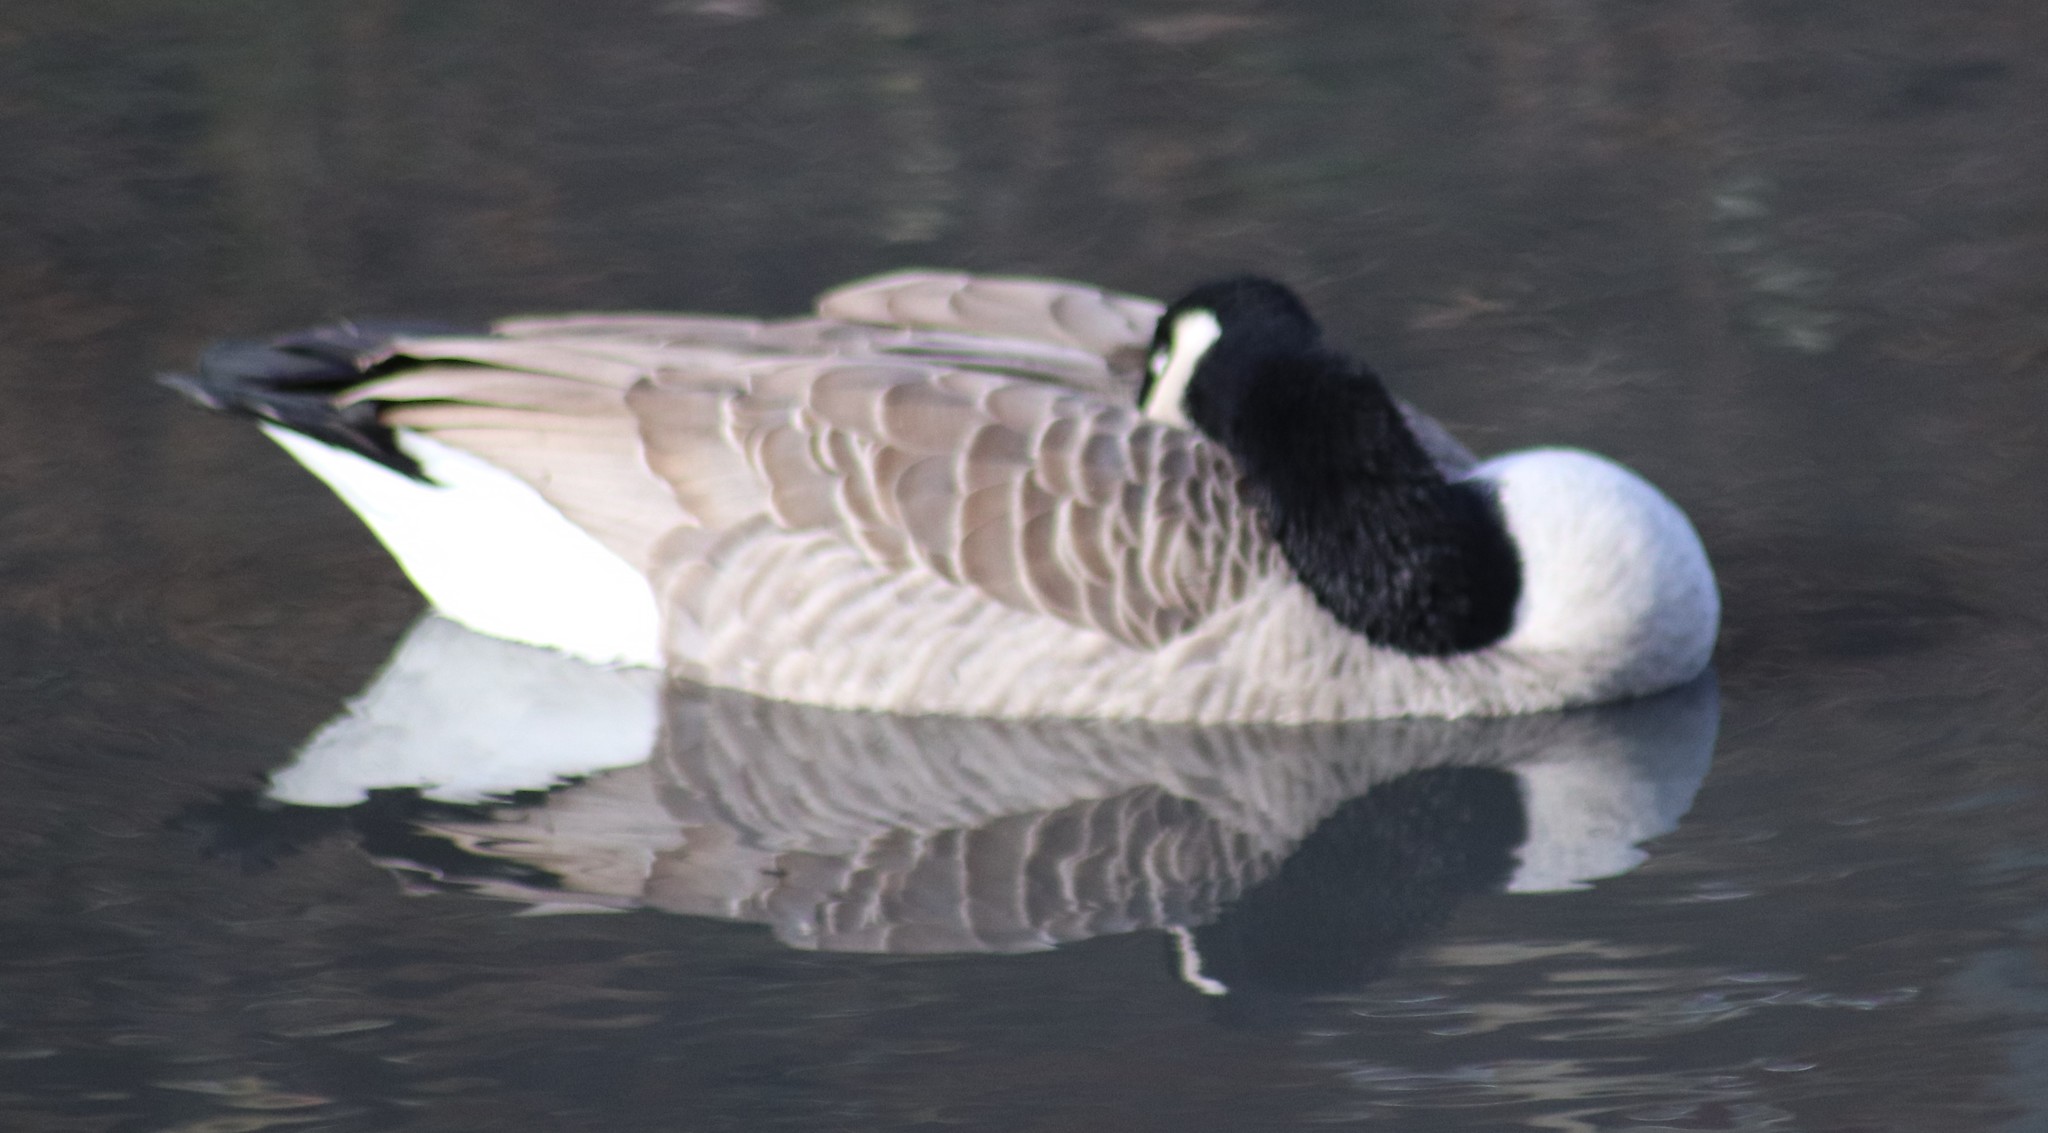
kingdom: Animalia
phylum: Chordata
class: Aves
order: Anseriformes
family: Anatidae
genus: Branta
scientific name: Branta canadensis
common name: Canada goose
